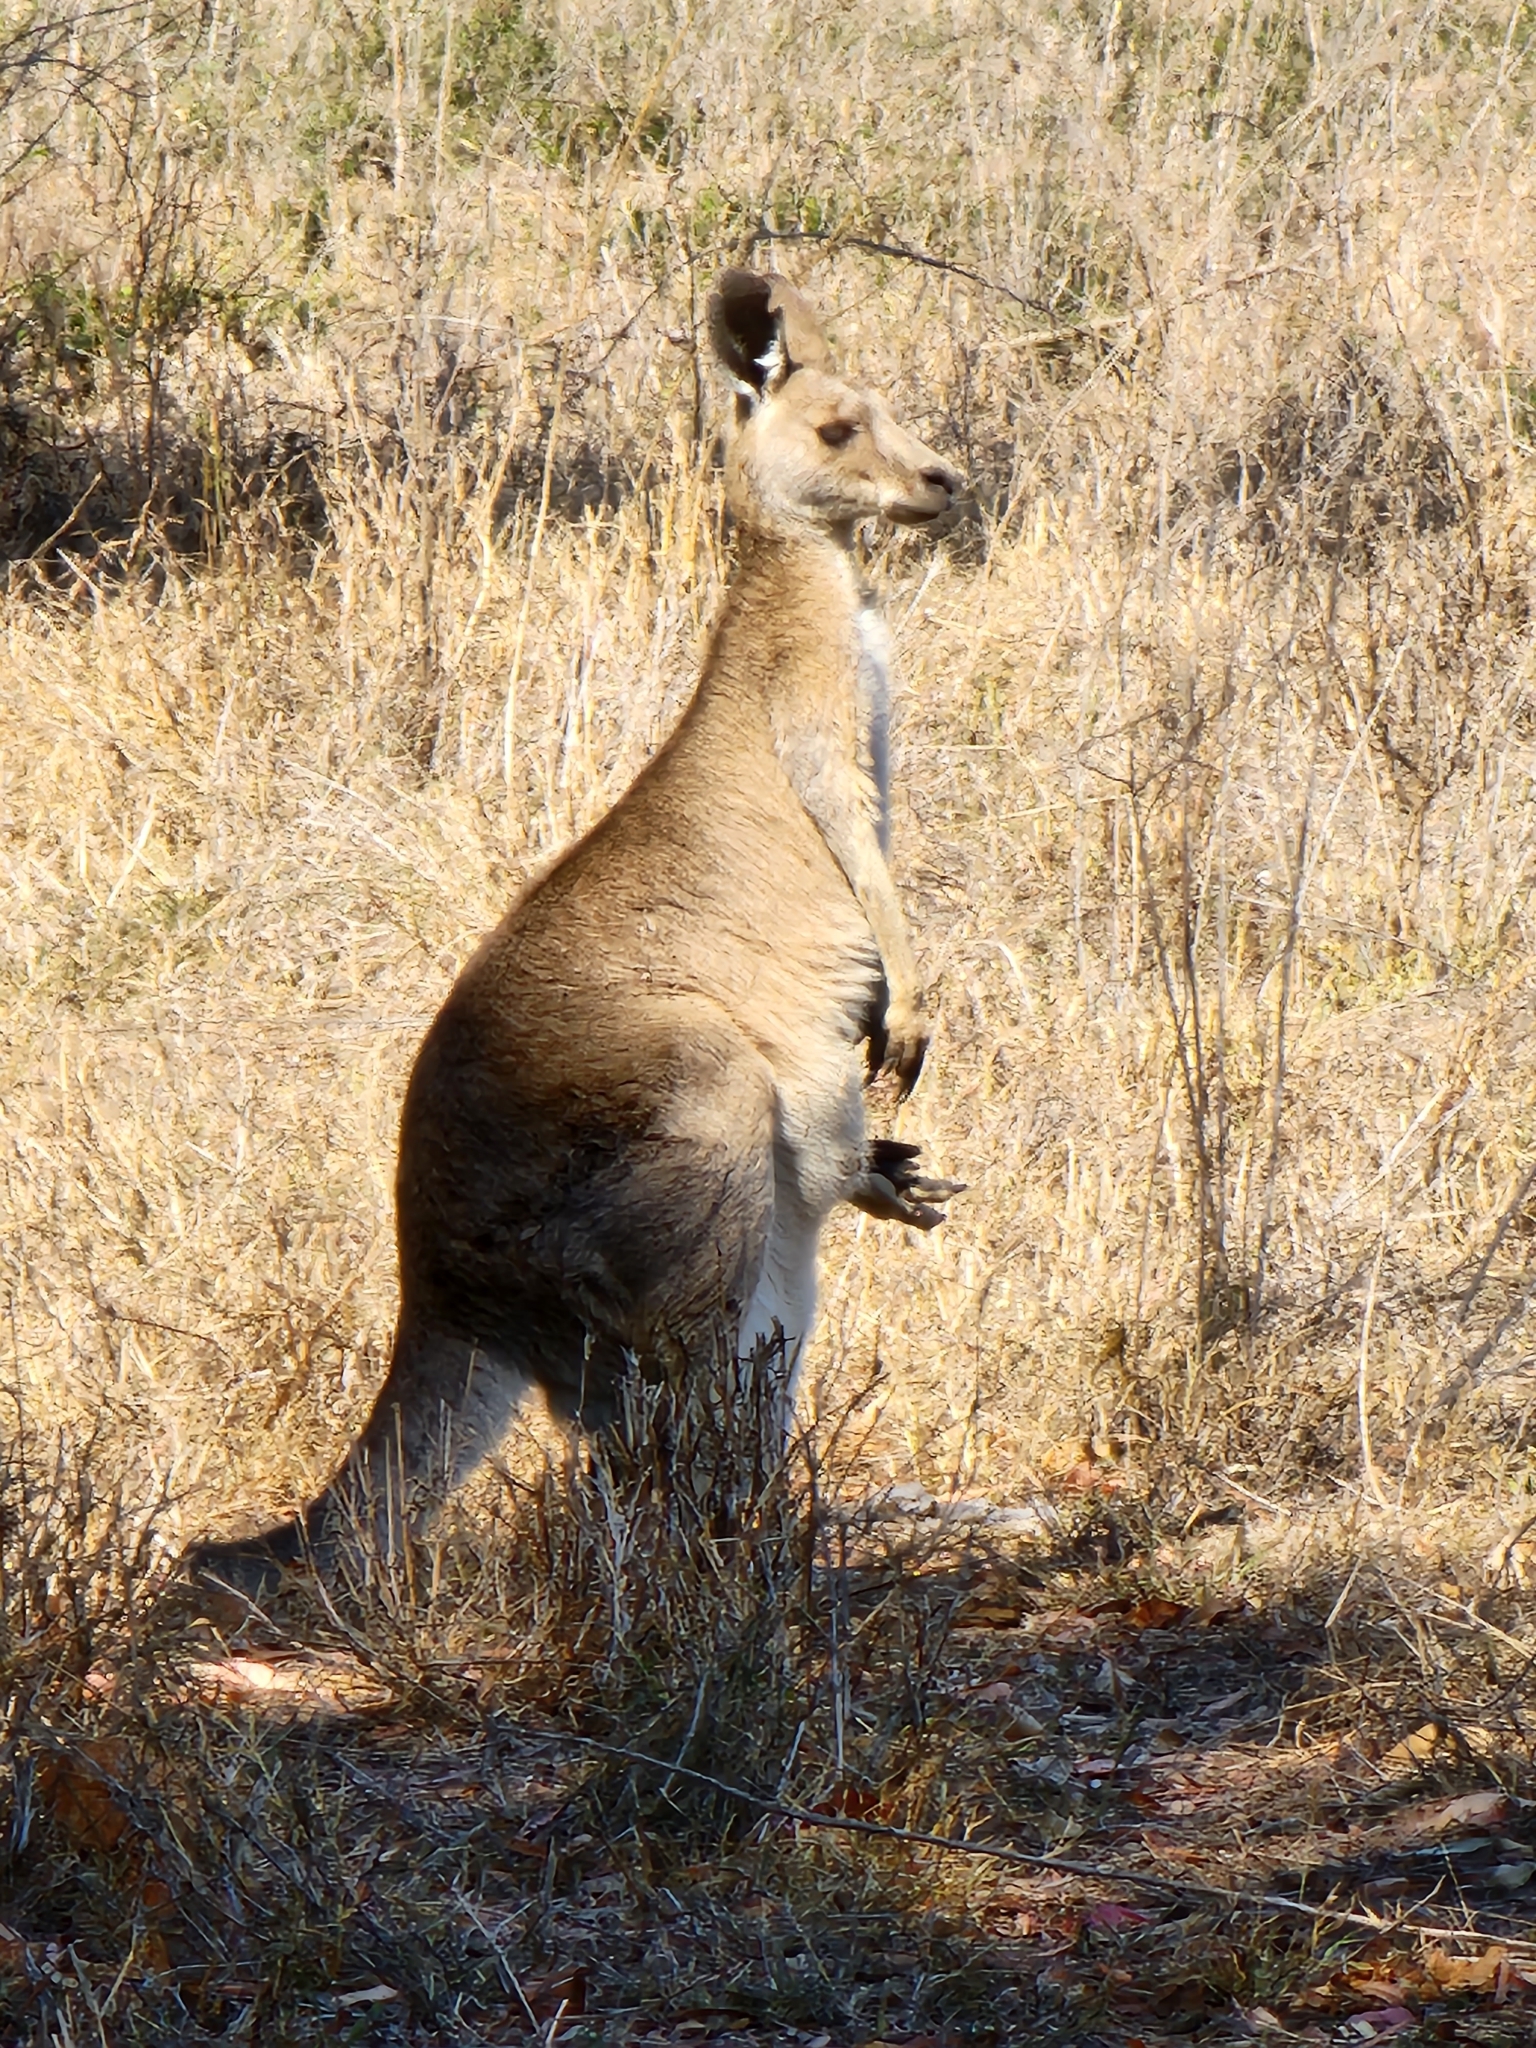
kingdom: Animalia
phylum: Chordata
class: Mammalia
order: Diprotodontia
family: Macropodidae
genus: Macropus
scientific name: Macropus giganteus
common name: Eastern grey kangaroo
